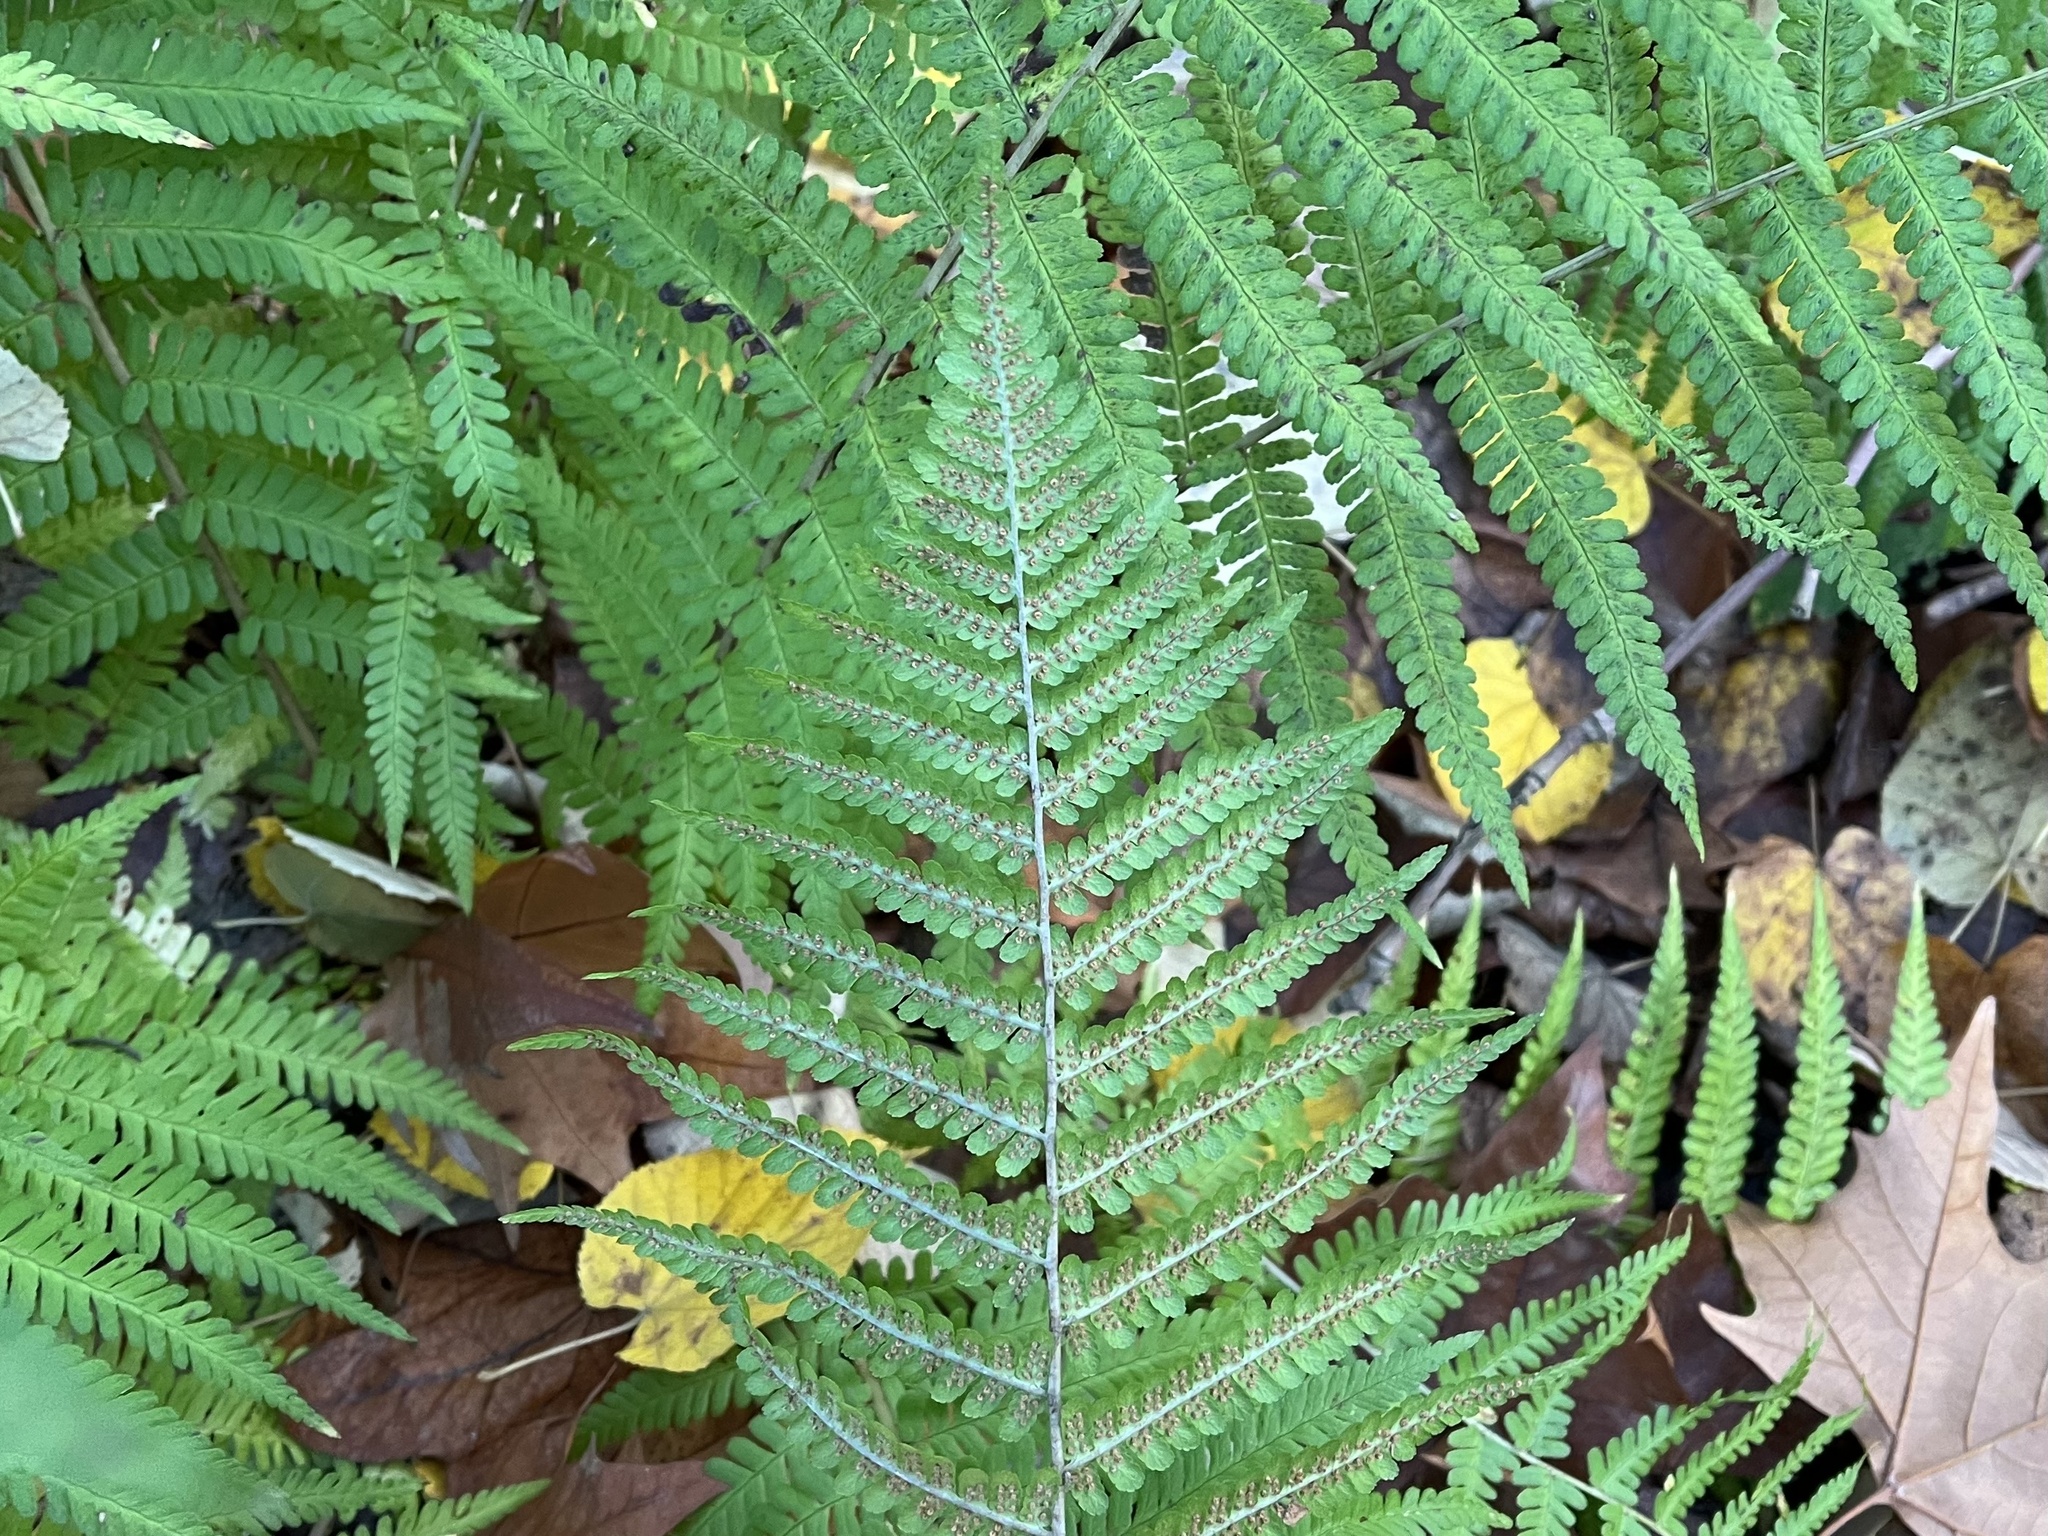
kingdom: Plantae
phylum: Tracheophyta
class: Polypodiopsida
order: Polypodiales
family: Dryopteridaceae
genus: Dryopteris
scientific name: Dryopteris filix-mas
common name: Male fern
